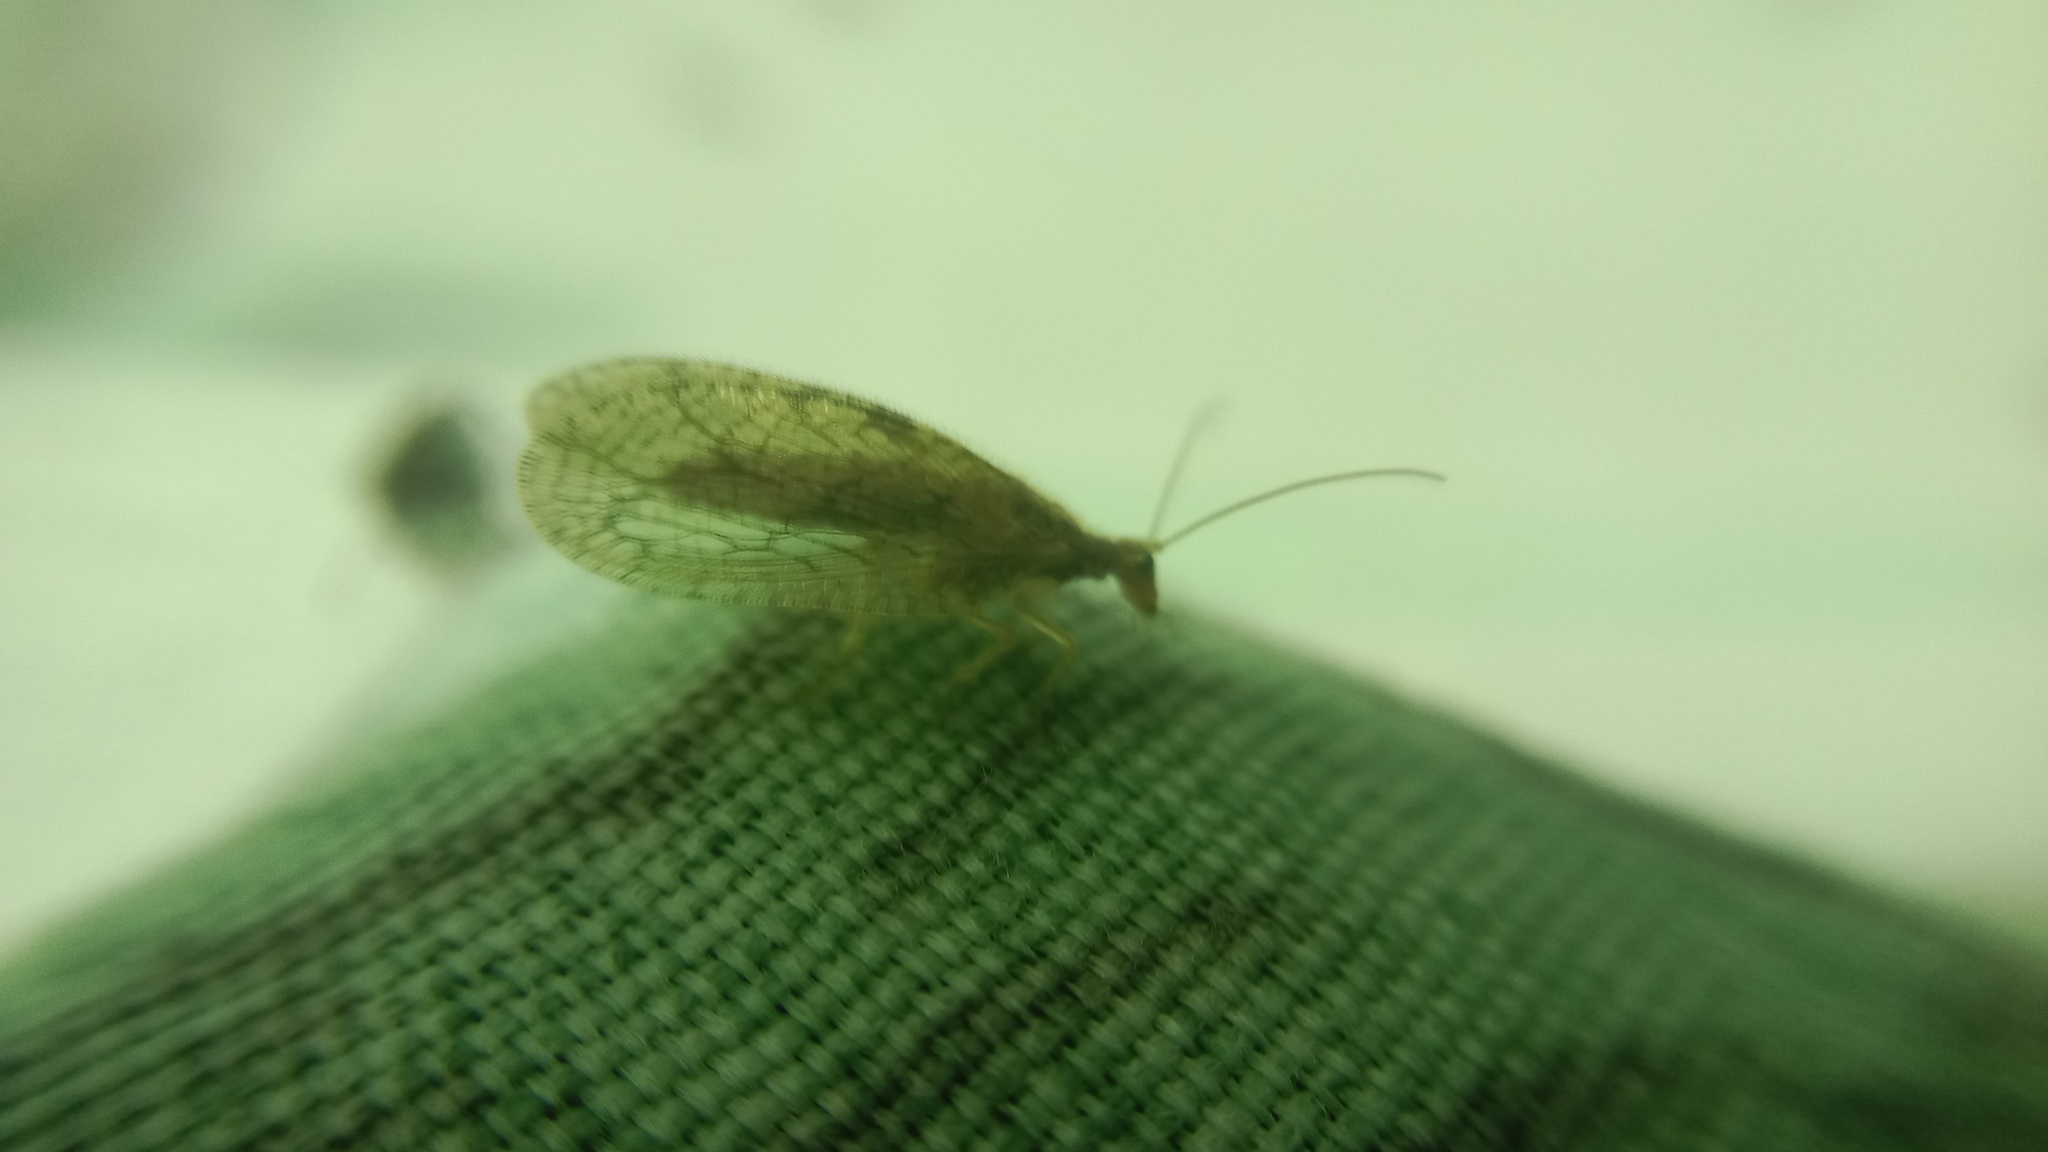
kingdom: Animalia
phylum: Arthropoda
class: Insecta
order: Neuroptera
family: Hemerobiidae
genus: Micromus
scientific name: Micromus angulatus
